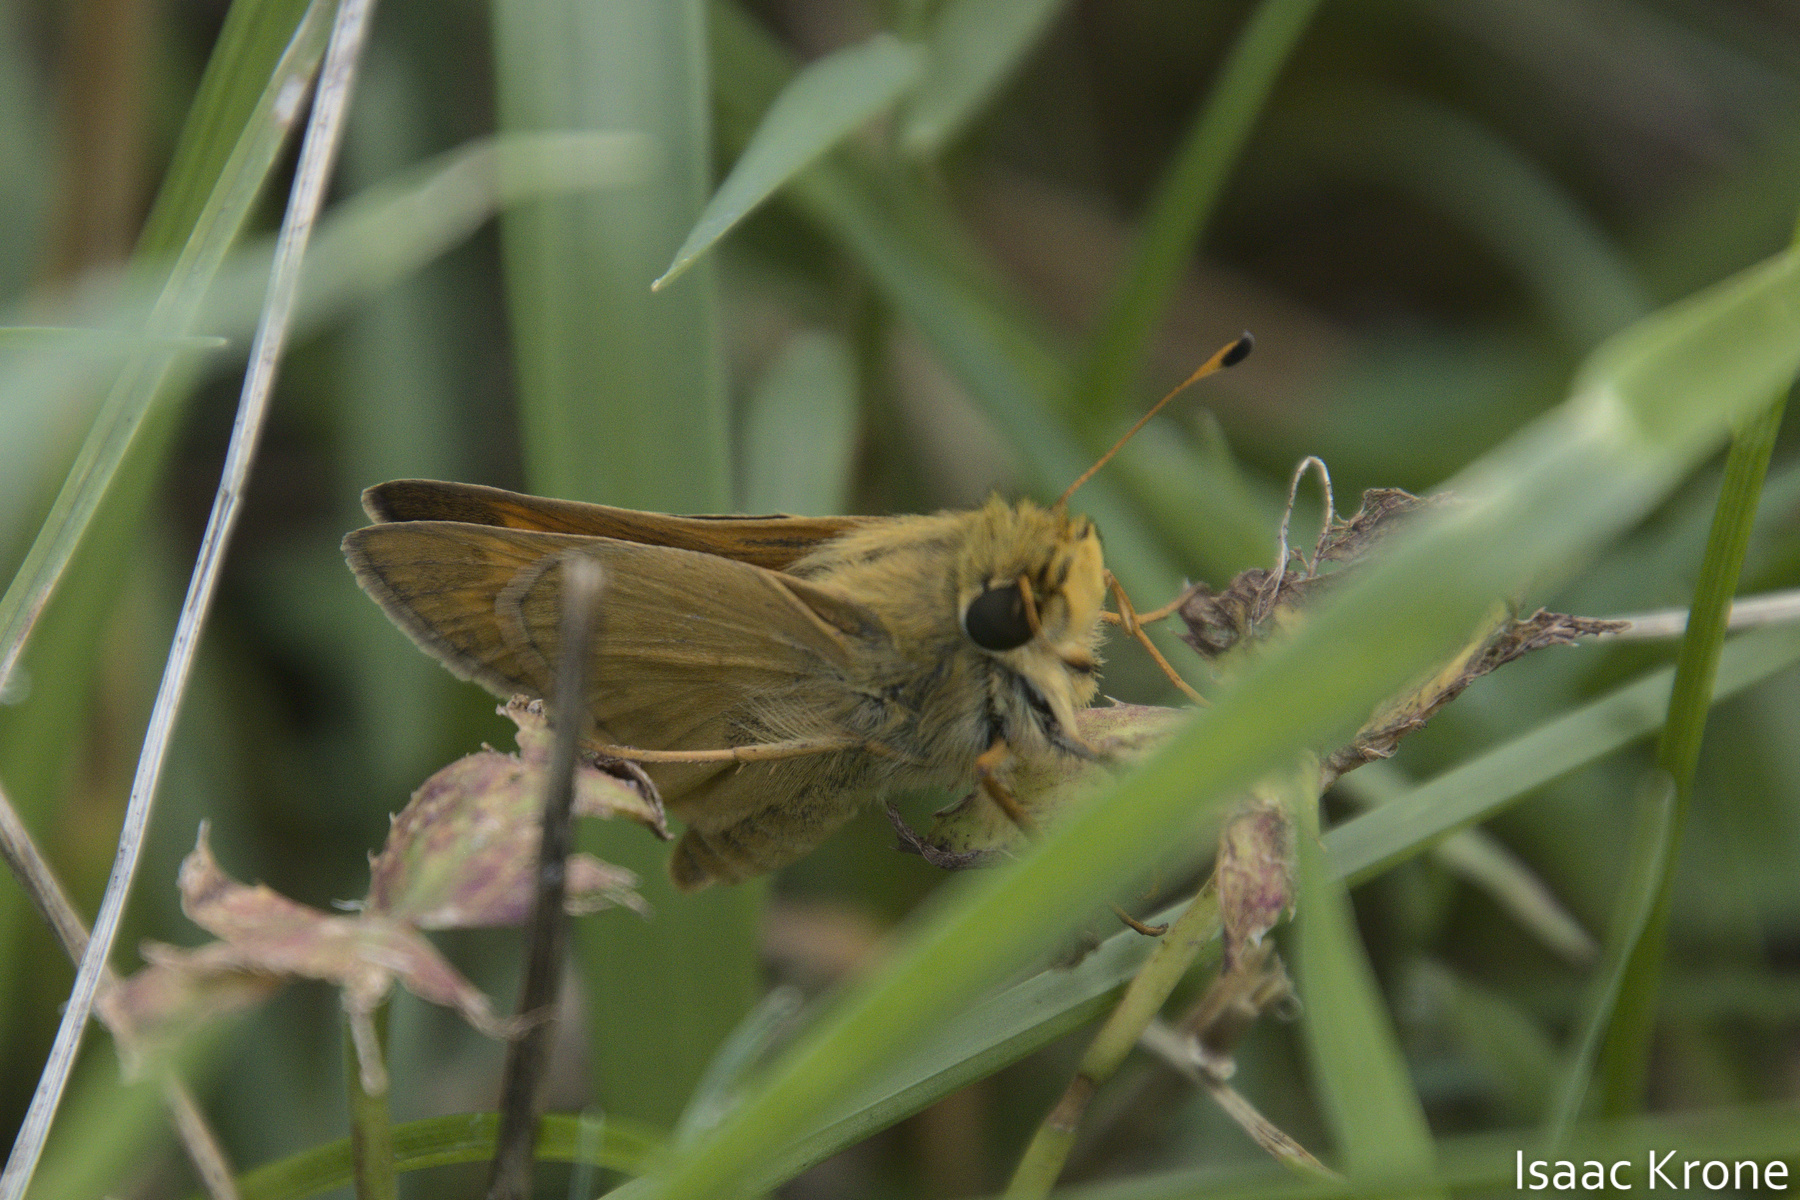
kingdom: Animalia
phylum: Arthropoda
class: Insecta
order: Lepidoptera
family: Hesperiidae
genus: Atalopedes
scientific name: Atalopedes
